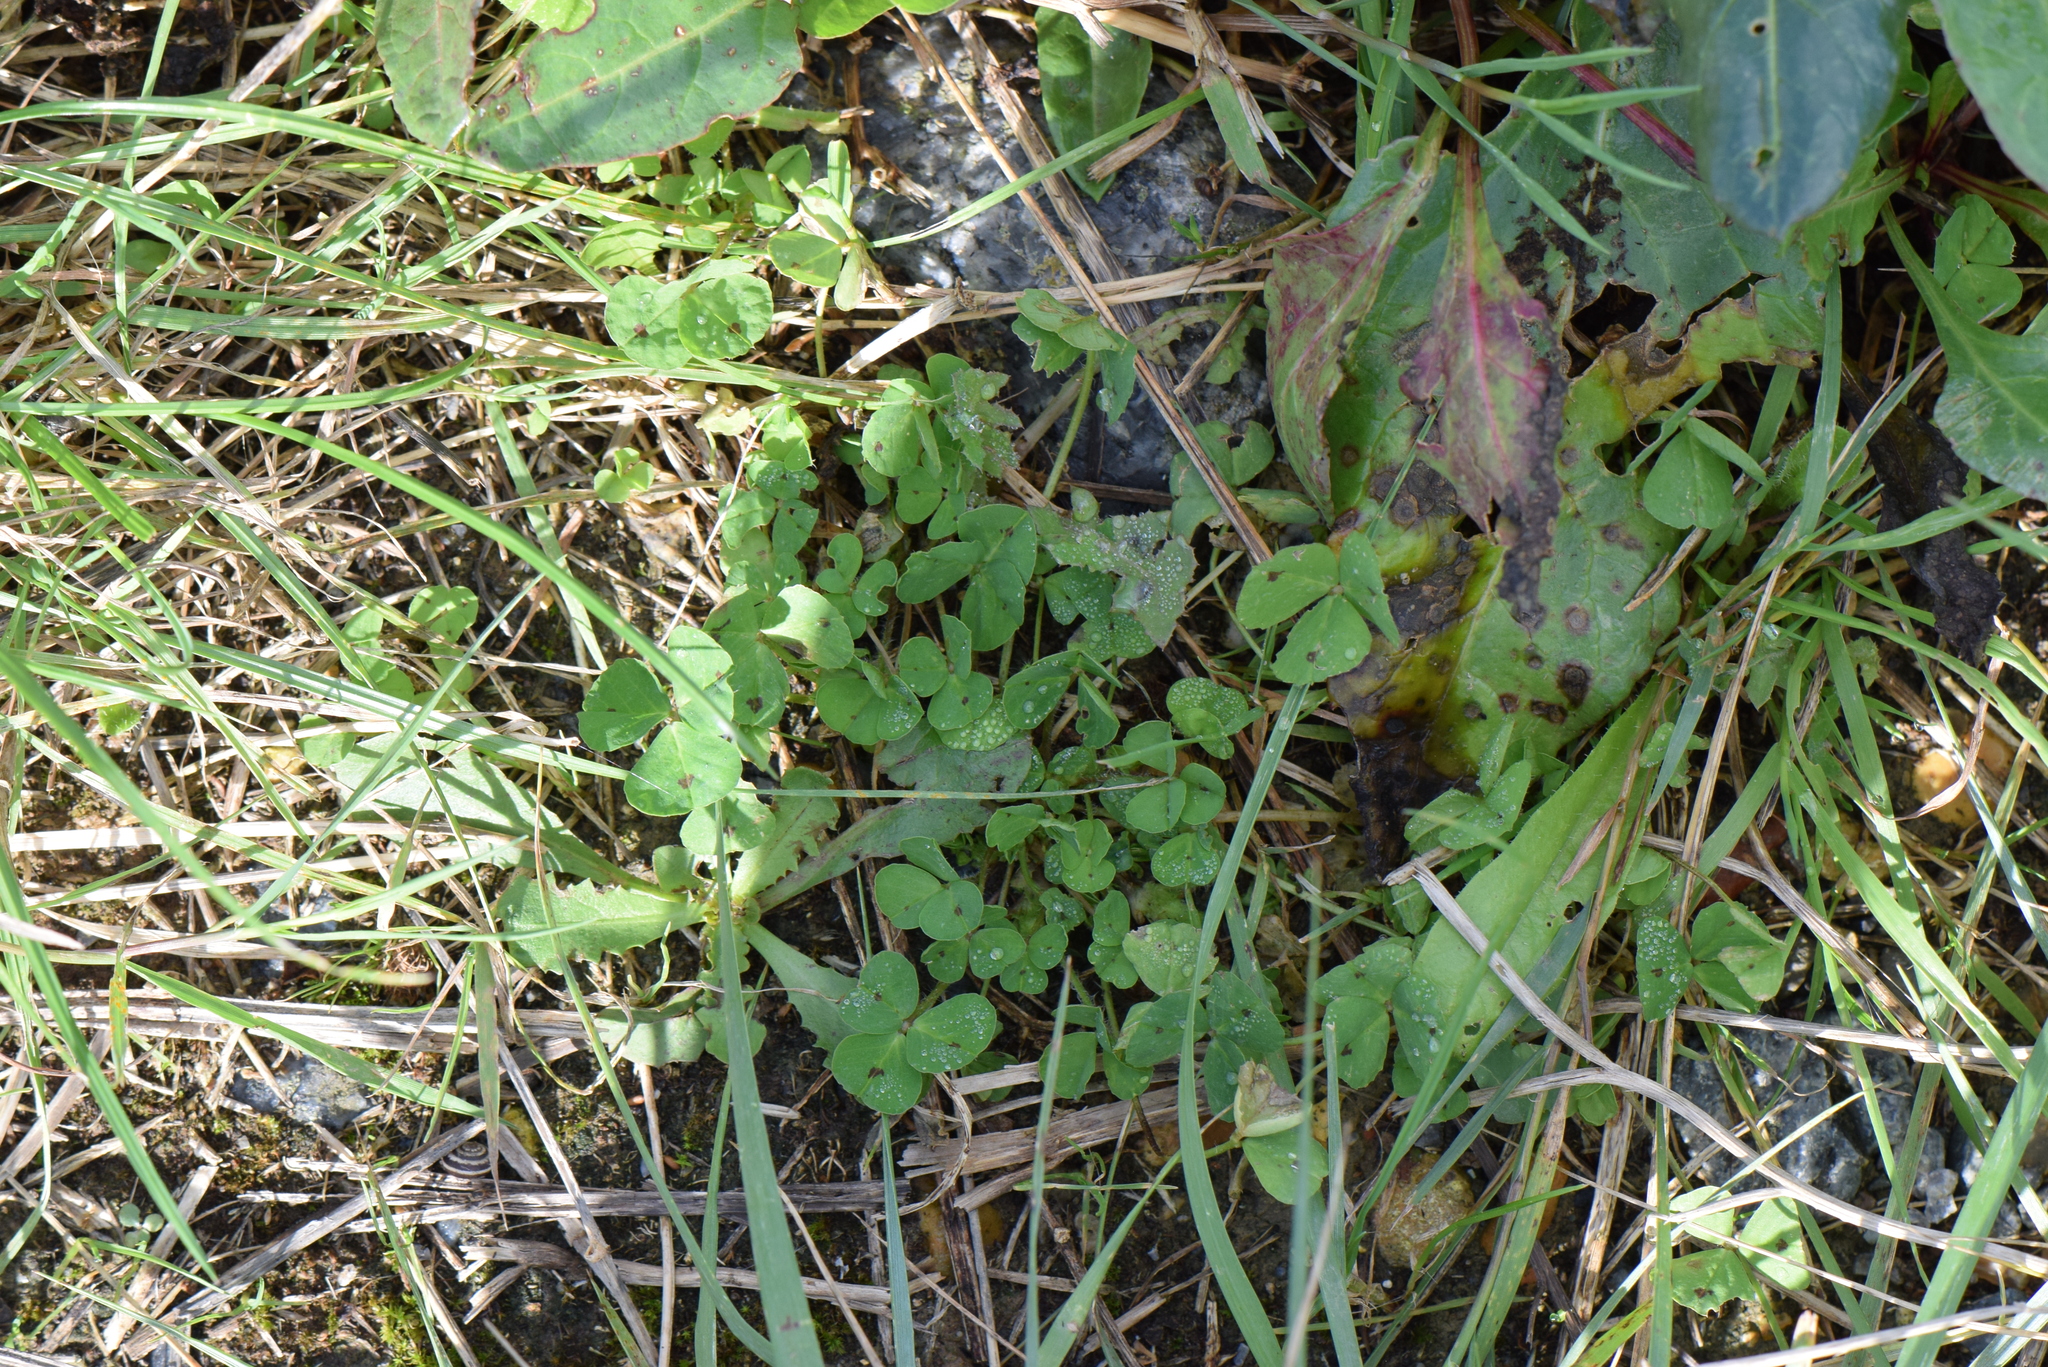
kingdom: Plantae
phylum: Tracheophyta
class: Magnoliopsida
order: Fabales
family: Fabaceae
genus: Medicago
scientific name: Medicago arabica
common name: Spotted medick
